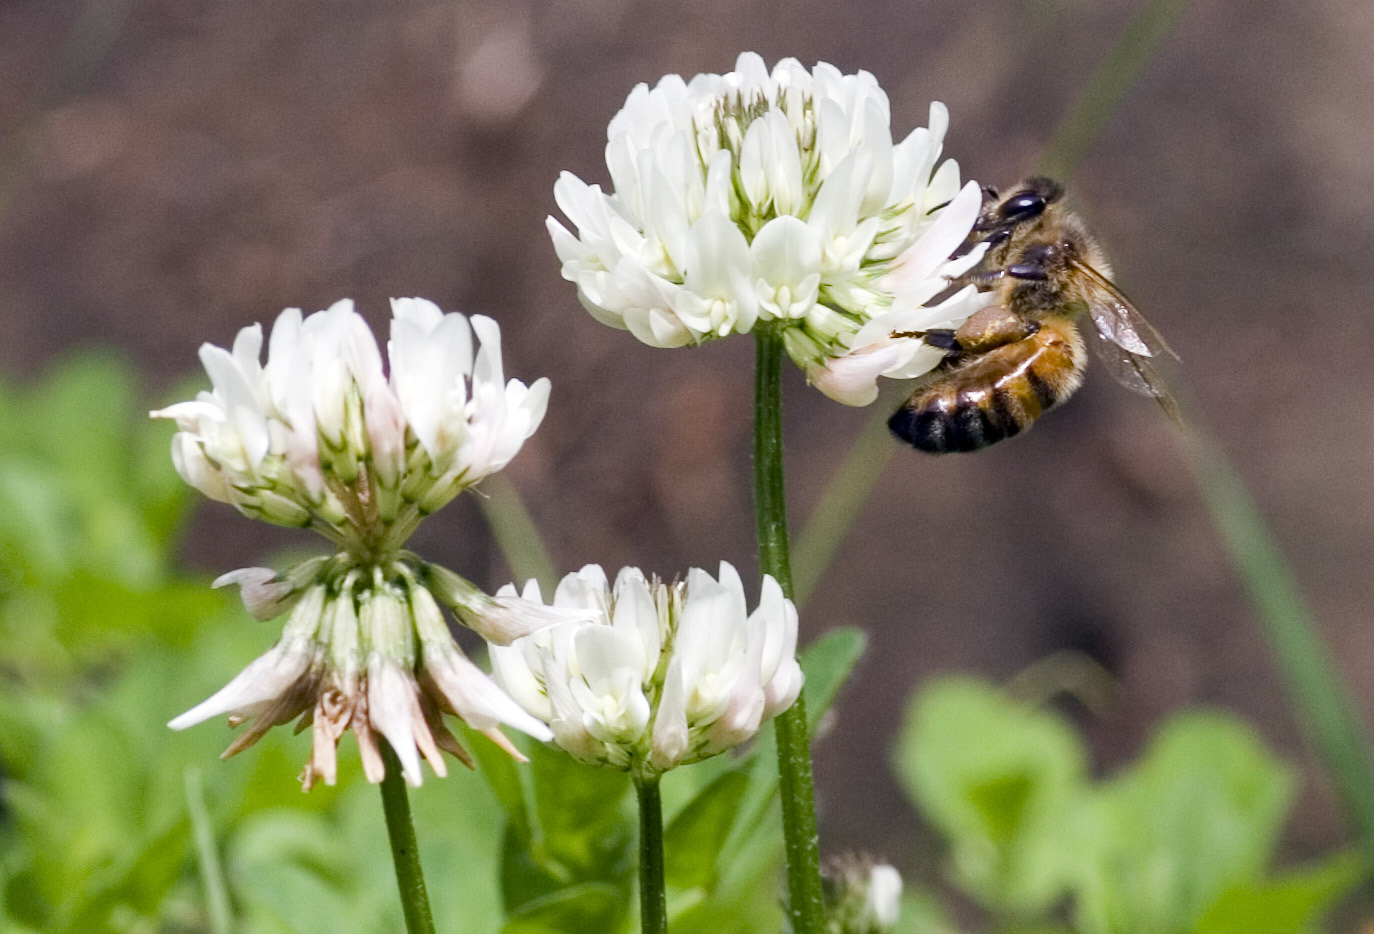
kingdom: Animalia
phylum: Arthropoda
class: Insecta
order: Hymenoptera
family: Apidae
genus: Apis
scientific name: Apis mellifera
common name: Honey bee
